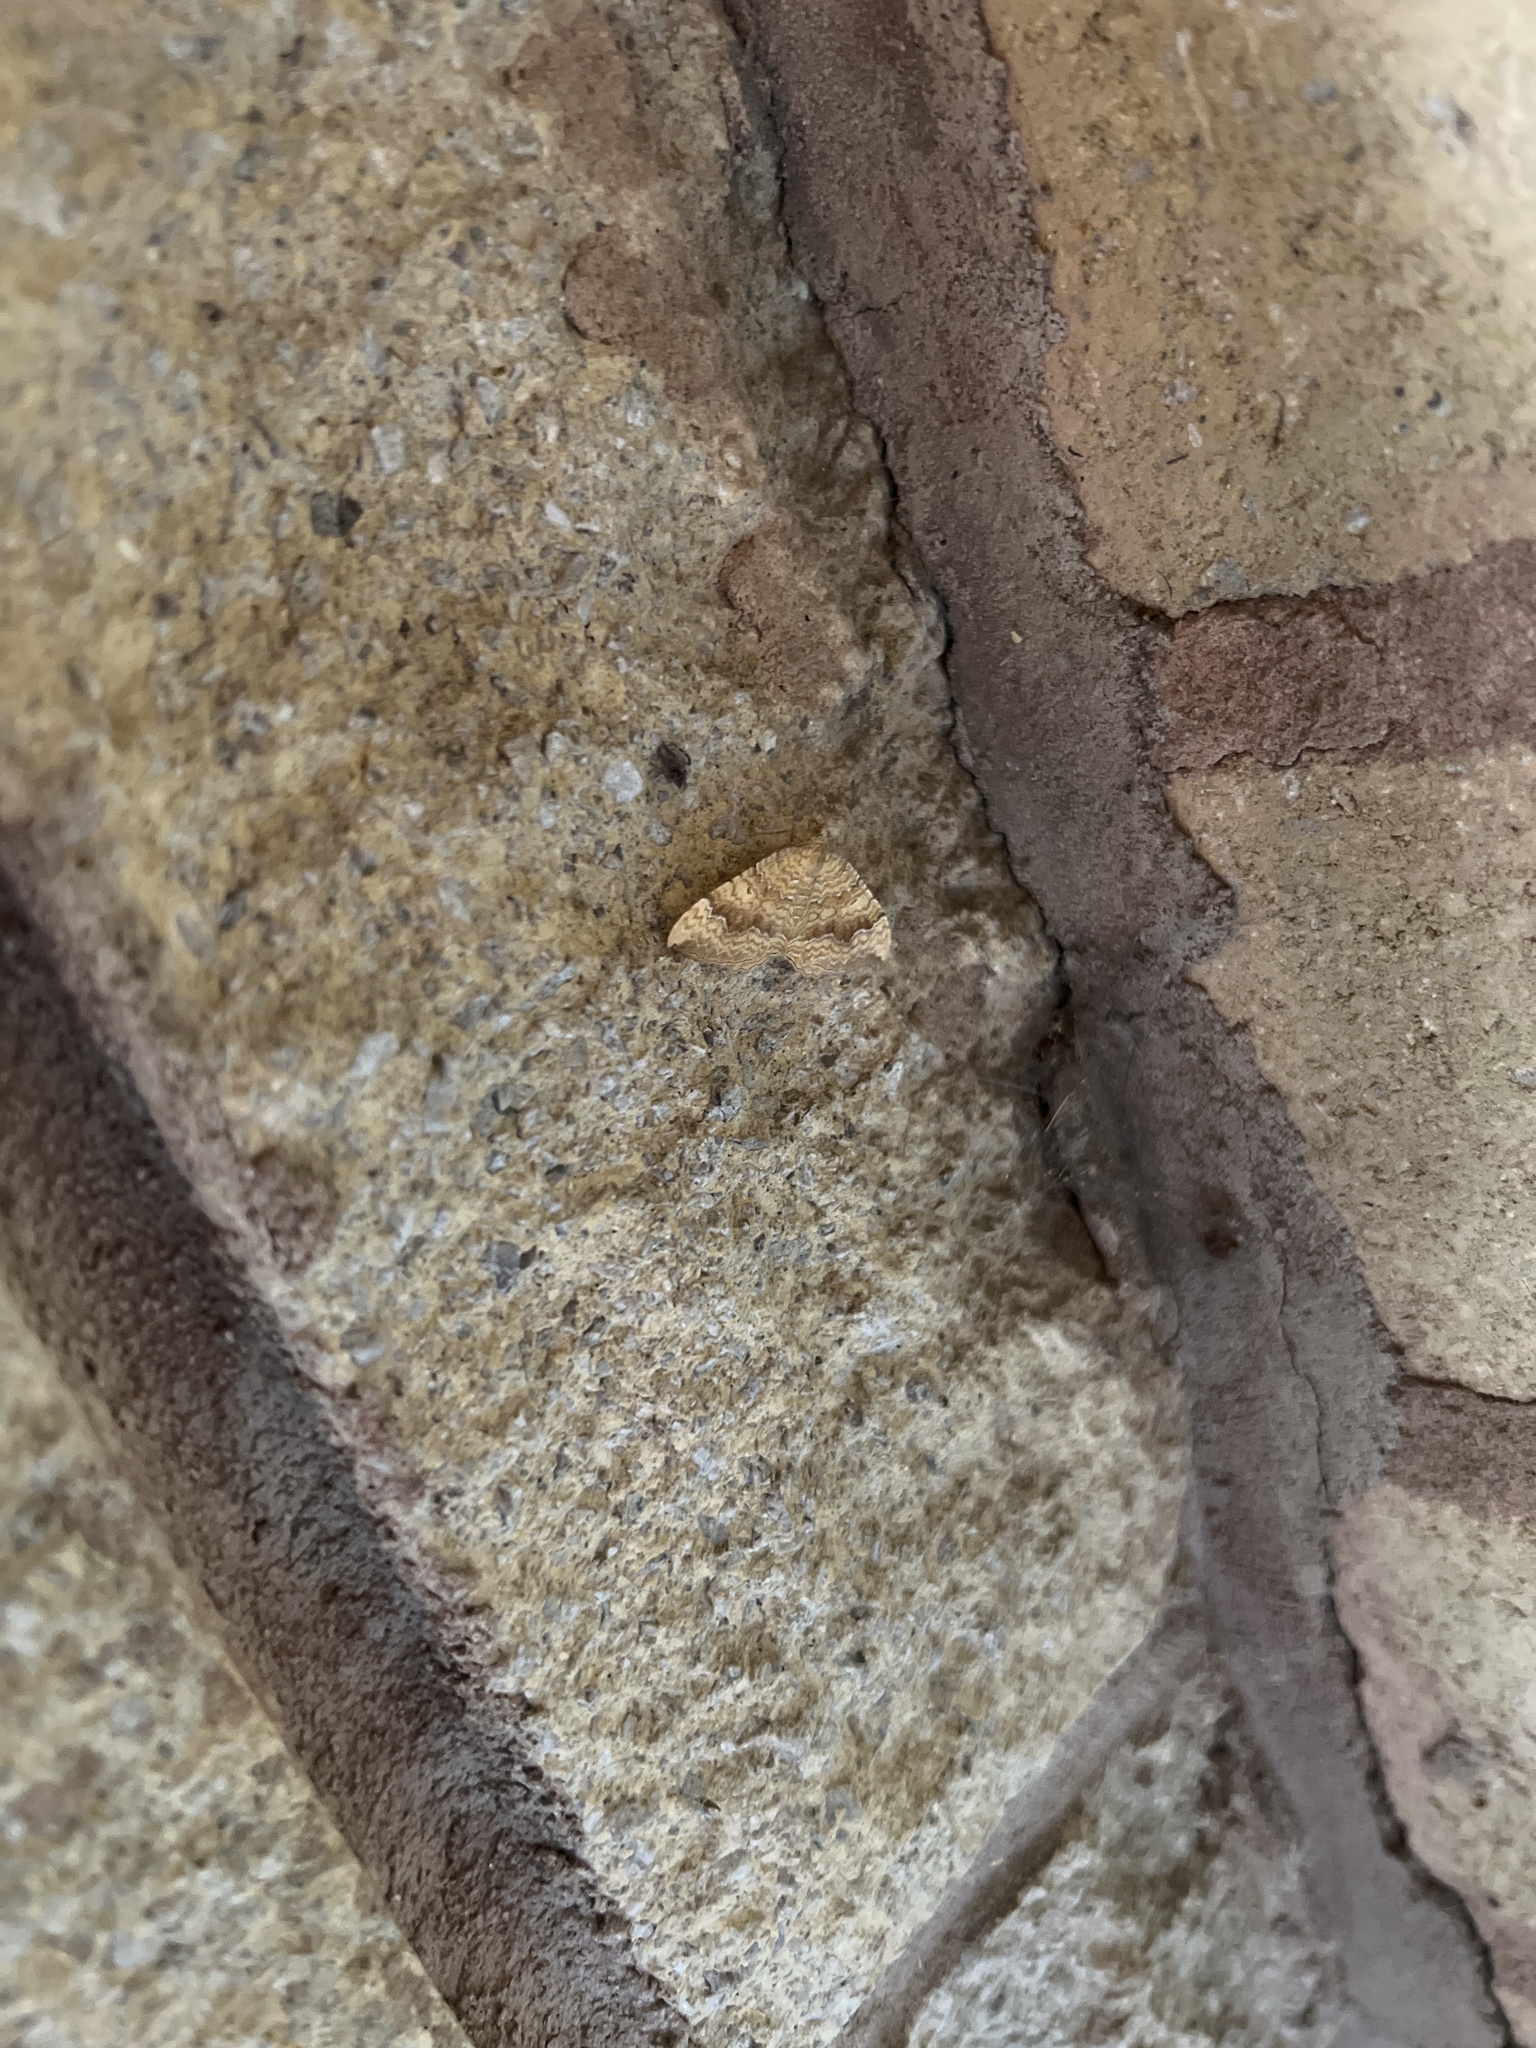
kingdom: Animalia
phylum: Arthropoda
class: Insecta
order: Lepidoptera
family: Geometridae
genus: Camptogramma
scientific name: Camptogramma bilineata
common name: Yellow shell
